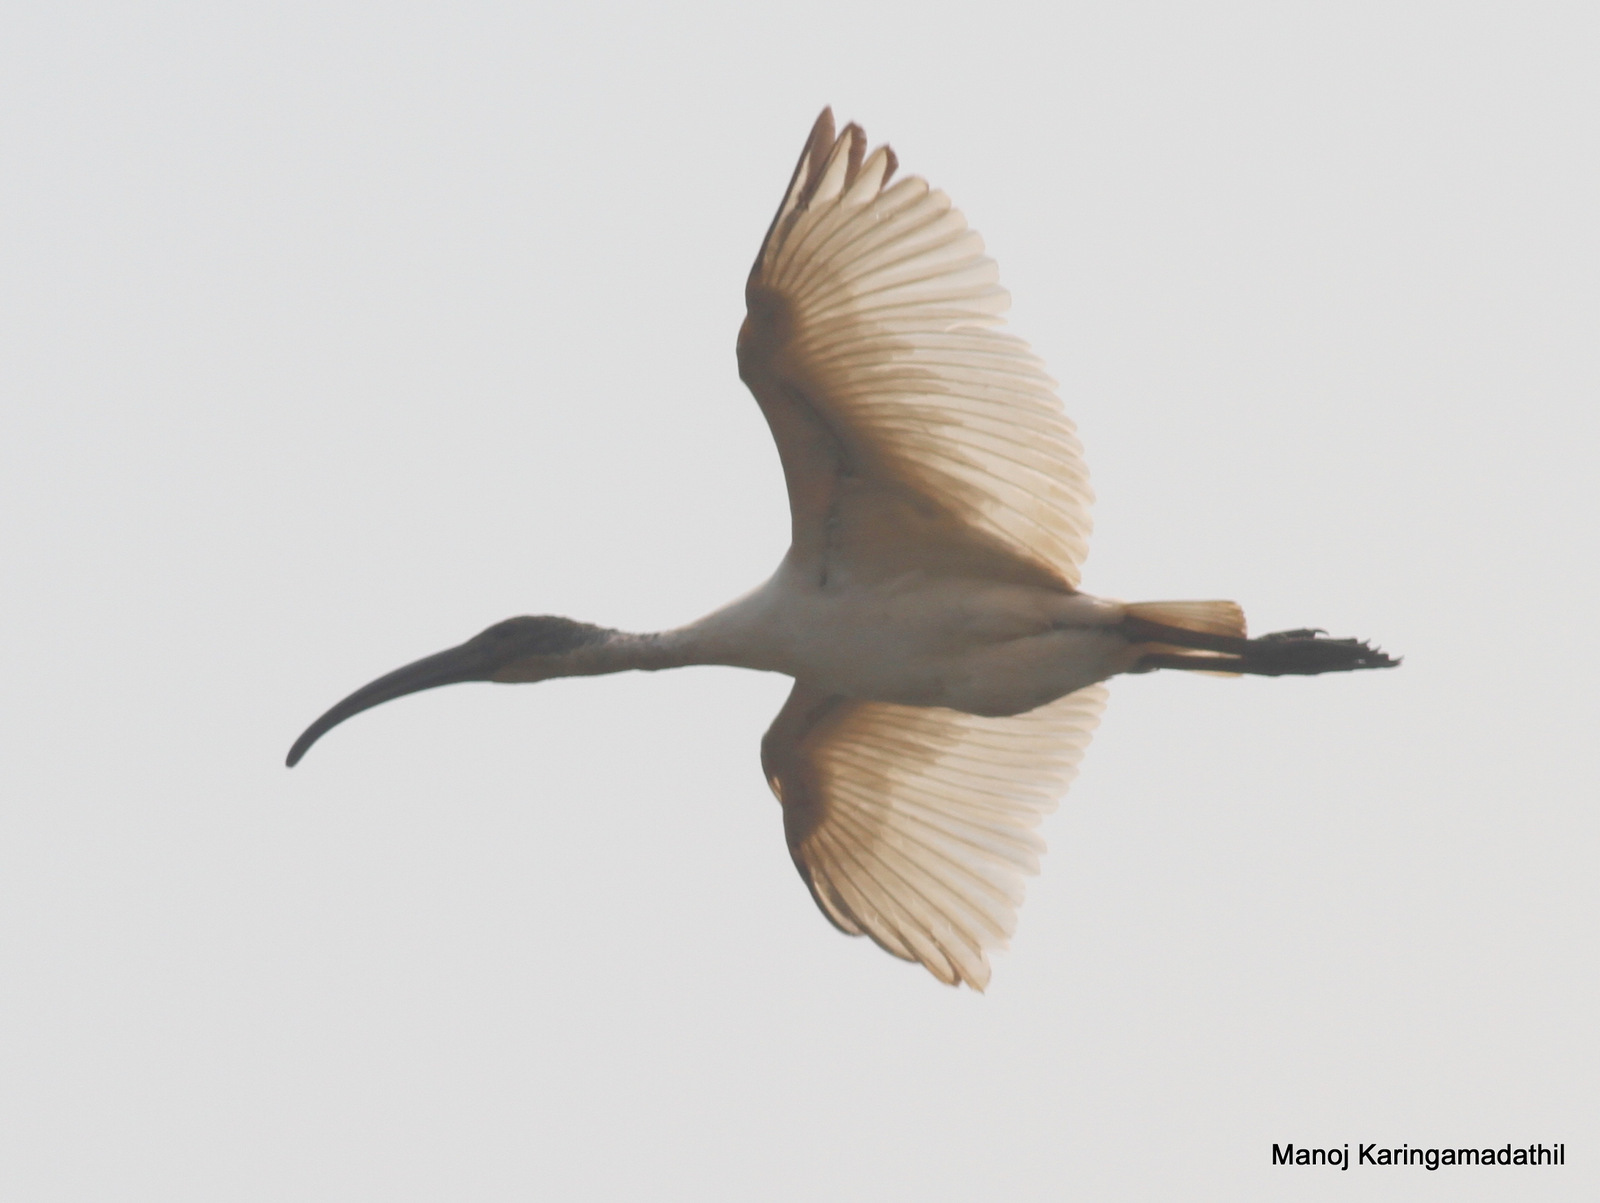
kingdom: Animalia
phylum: Chordata
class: Aves
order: Pelecaniformes
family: Threskiornithidae
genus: Threskiornis
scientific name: Threskiornis melanocephalus
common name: Black-headed ibis
